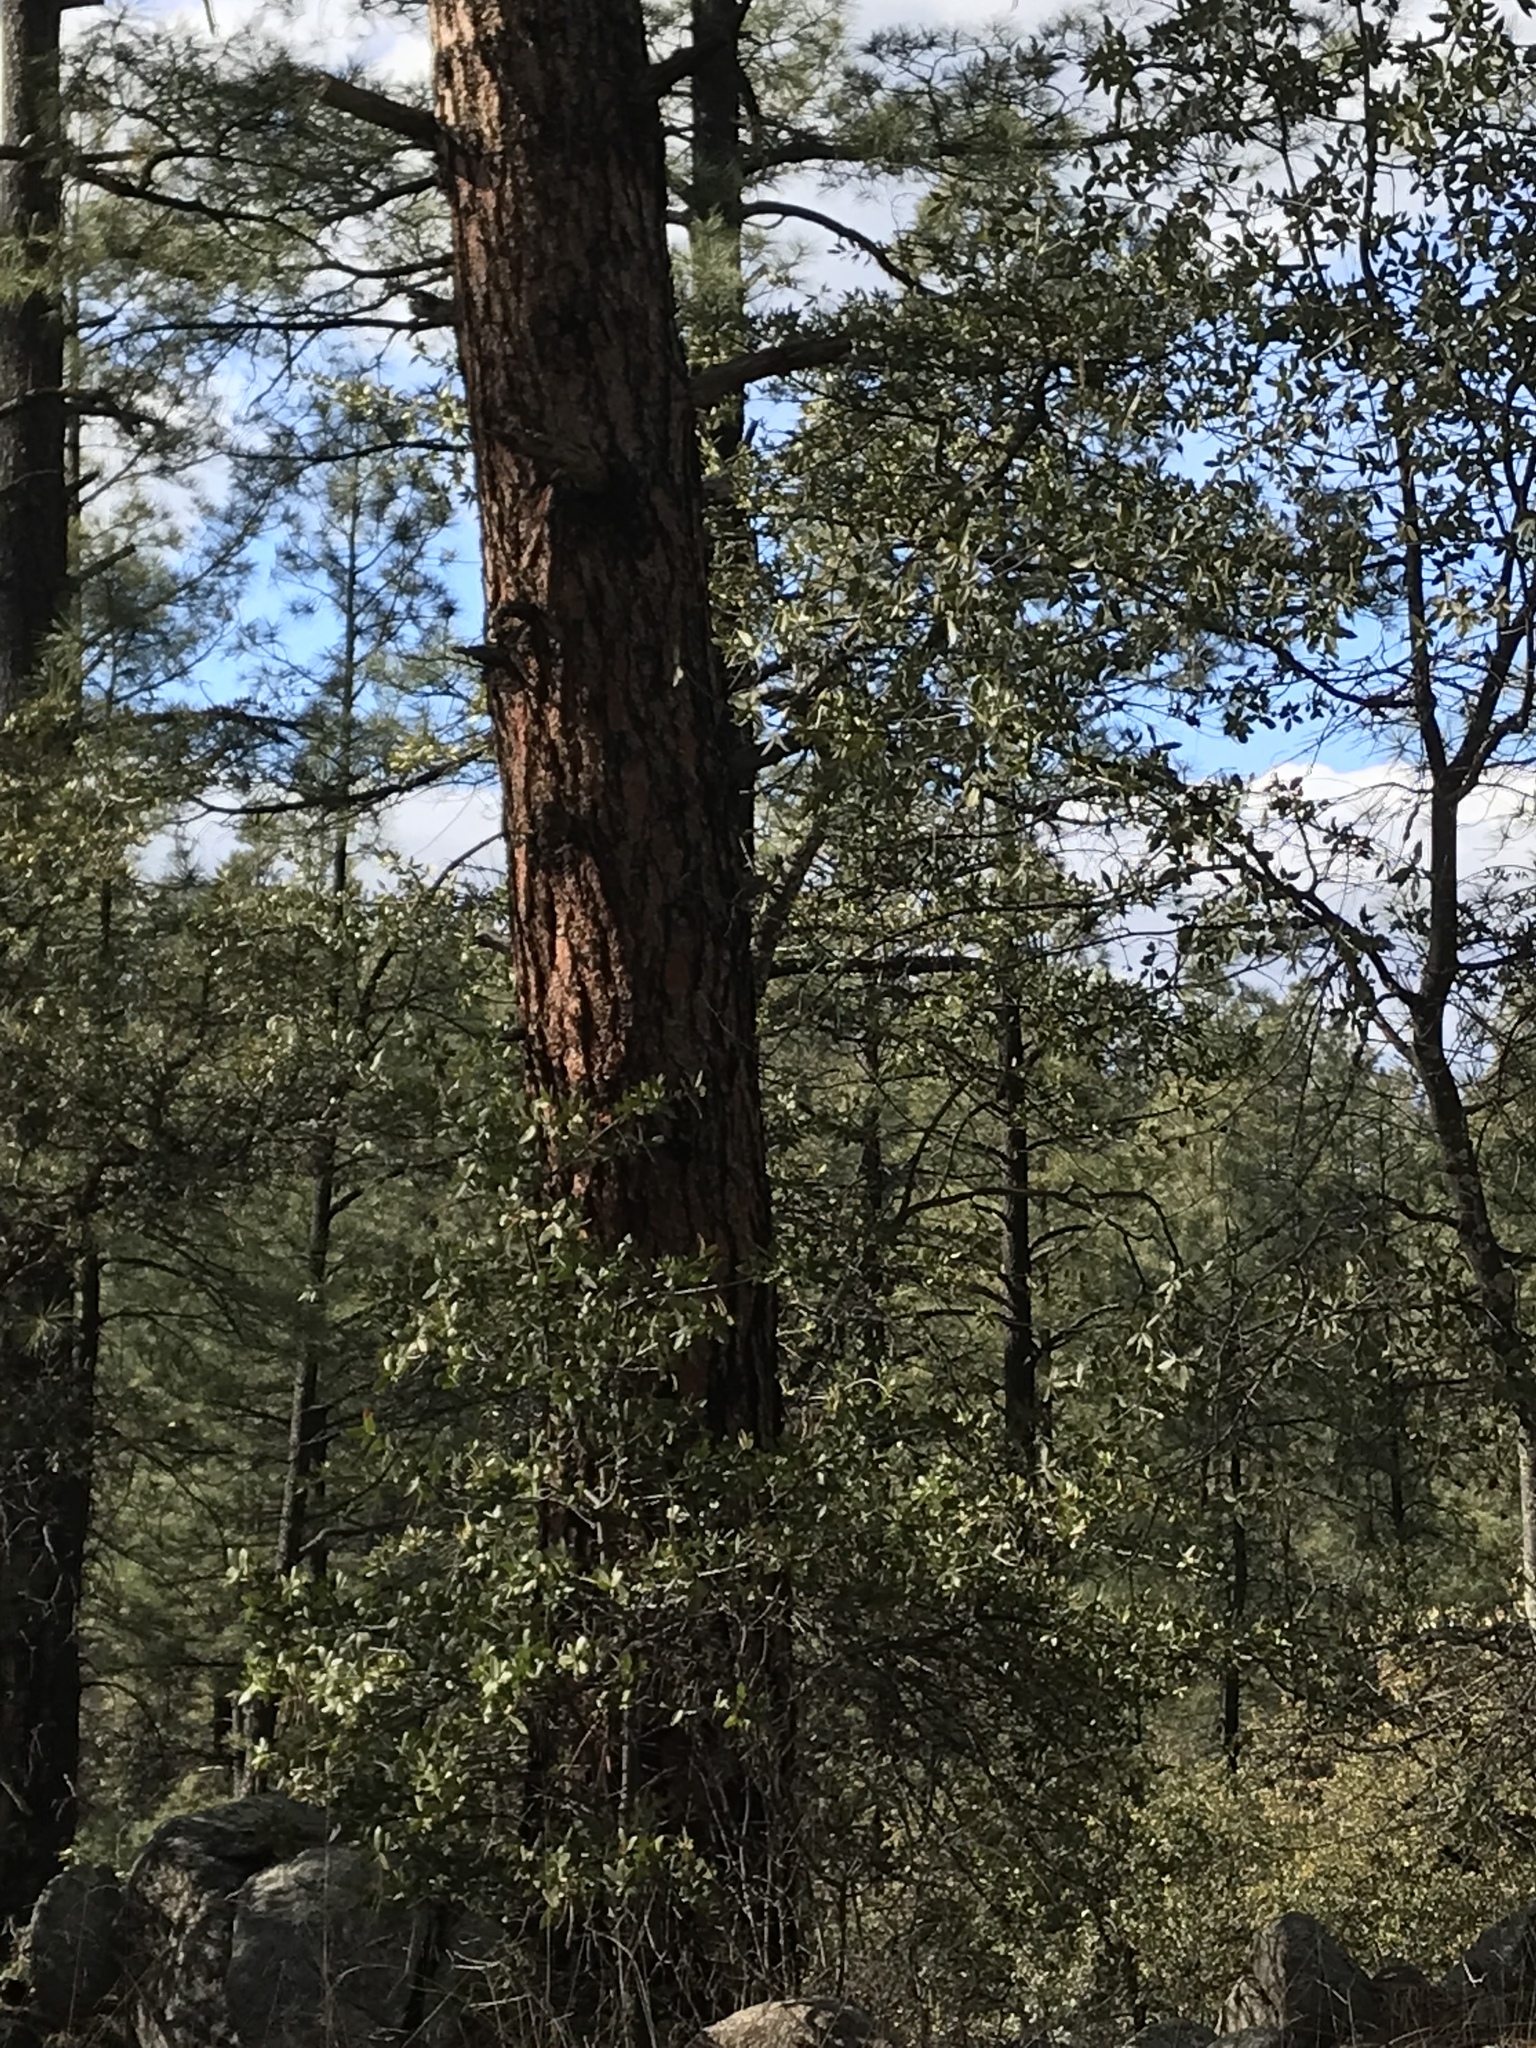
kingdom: Plantae
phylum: Tracheophyta
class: Pinopsida
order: Pinales
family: Pinaceae
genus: Pinus
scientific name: Pinus ponderosa
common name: Western yellow-pine
